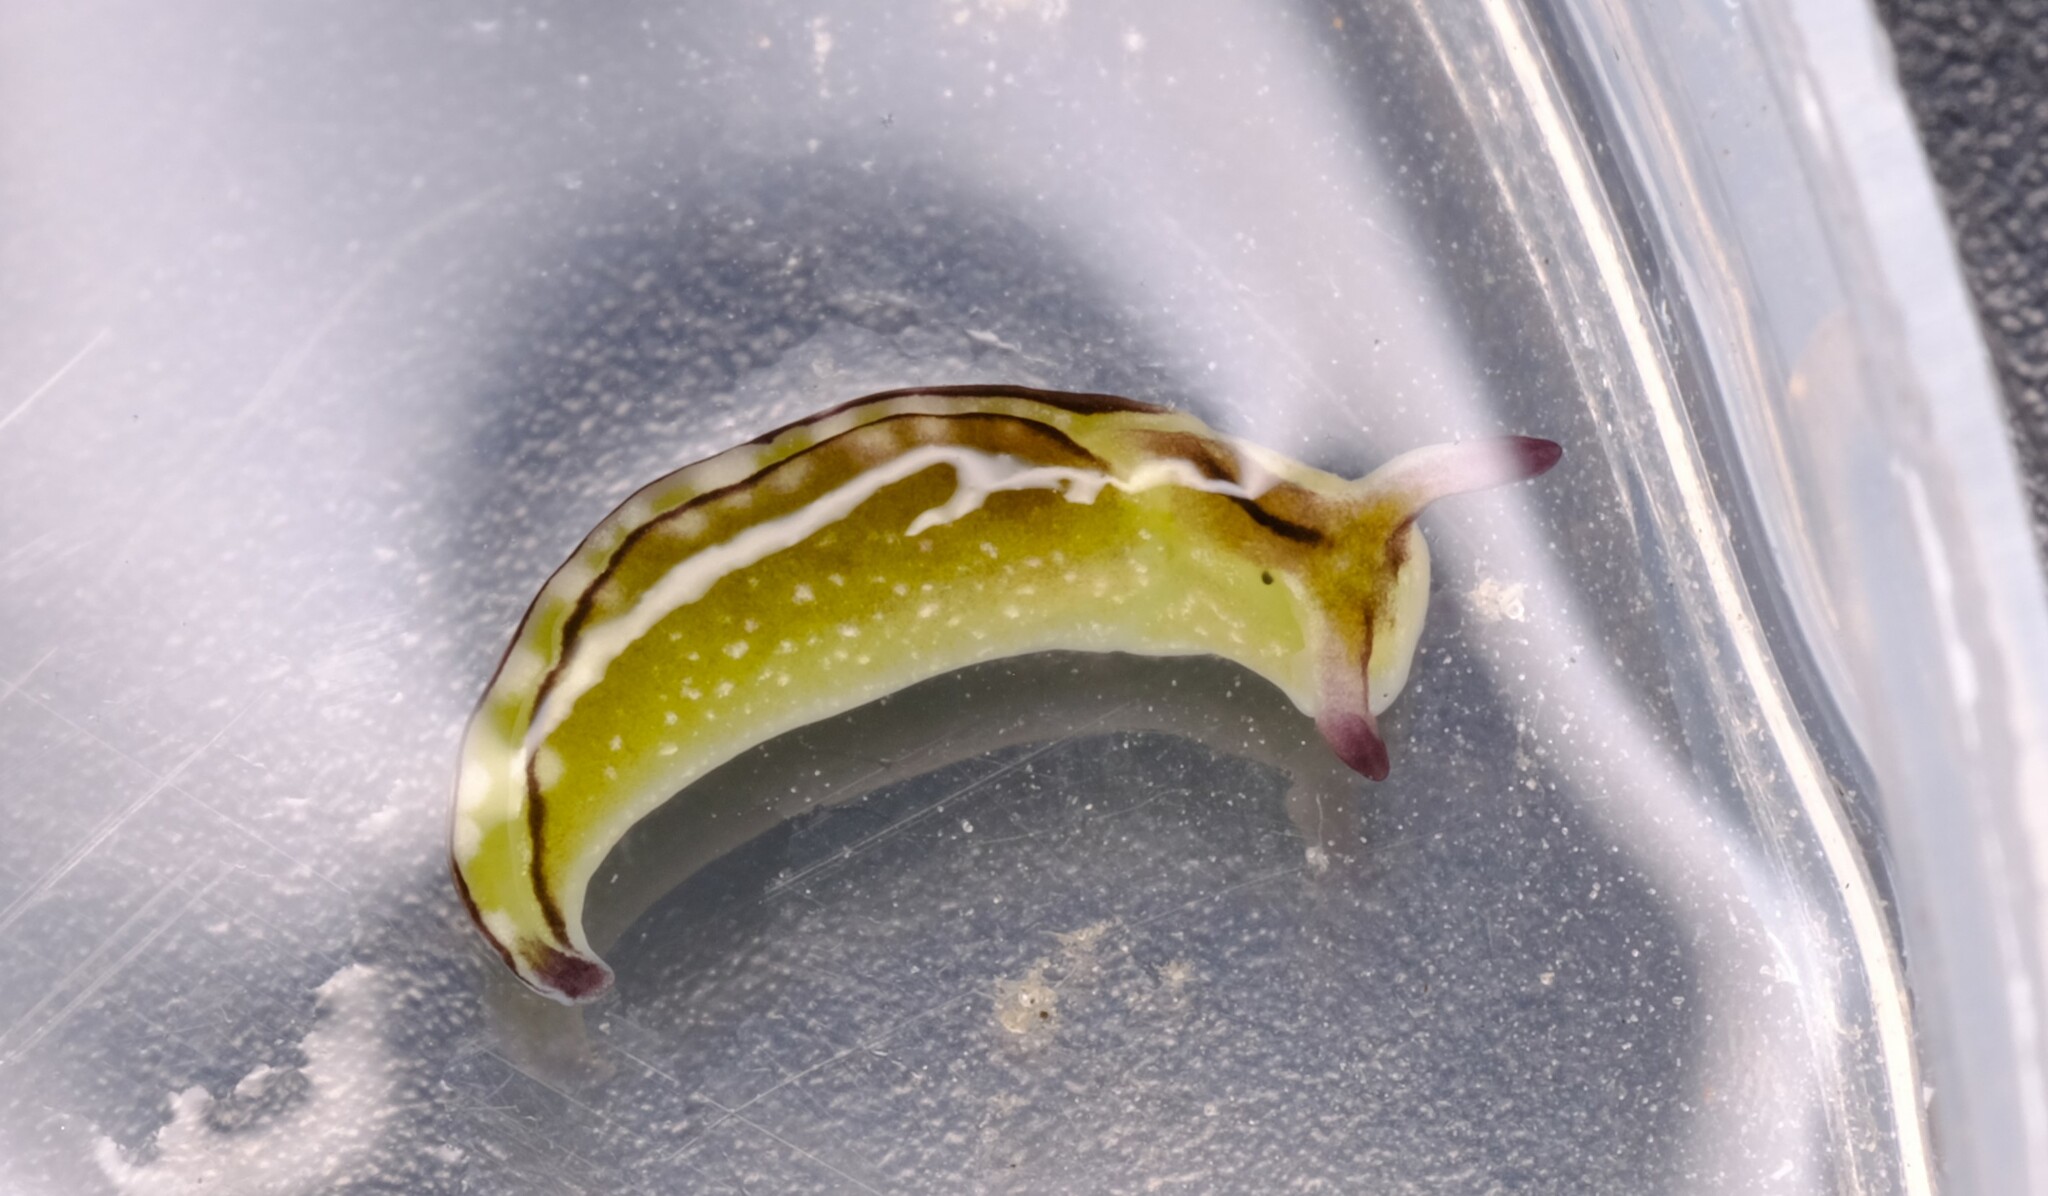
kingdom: Animalia
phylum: Mollusca
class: Gastropoda
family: Plakobranchidae
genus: Elysia
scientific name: Elysia coodgeensis
